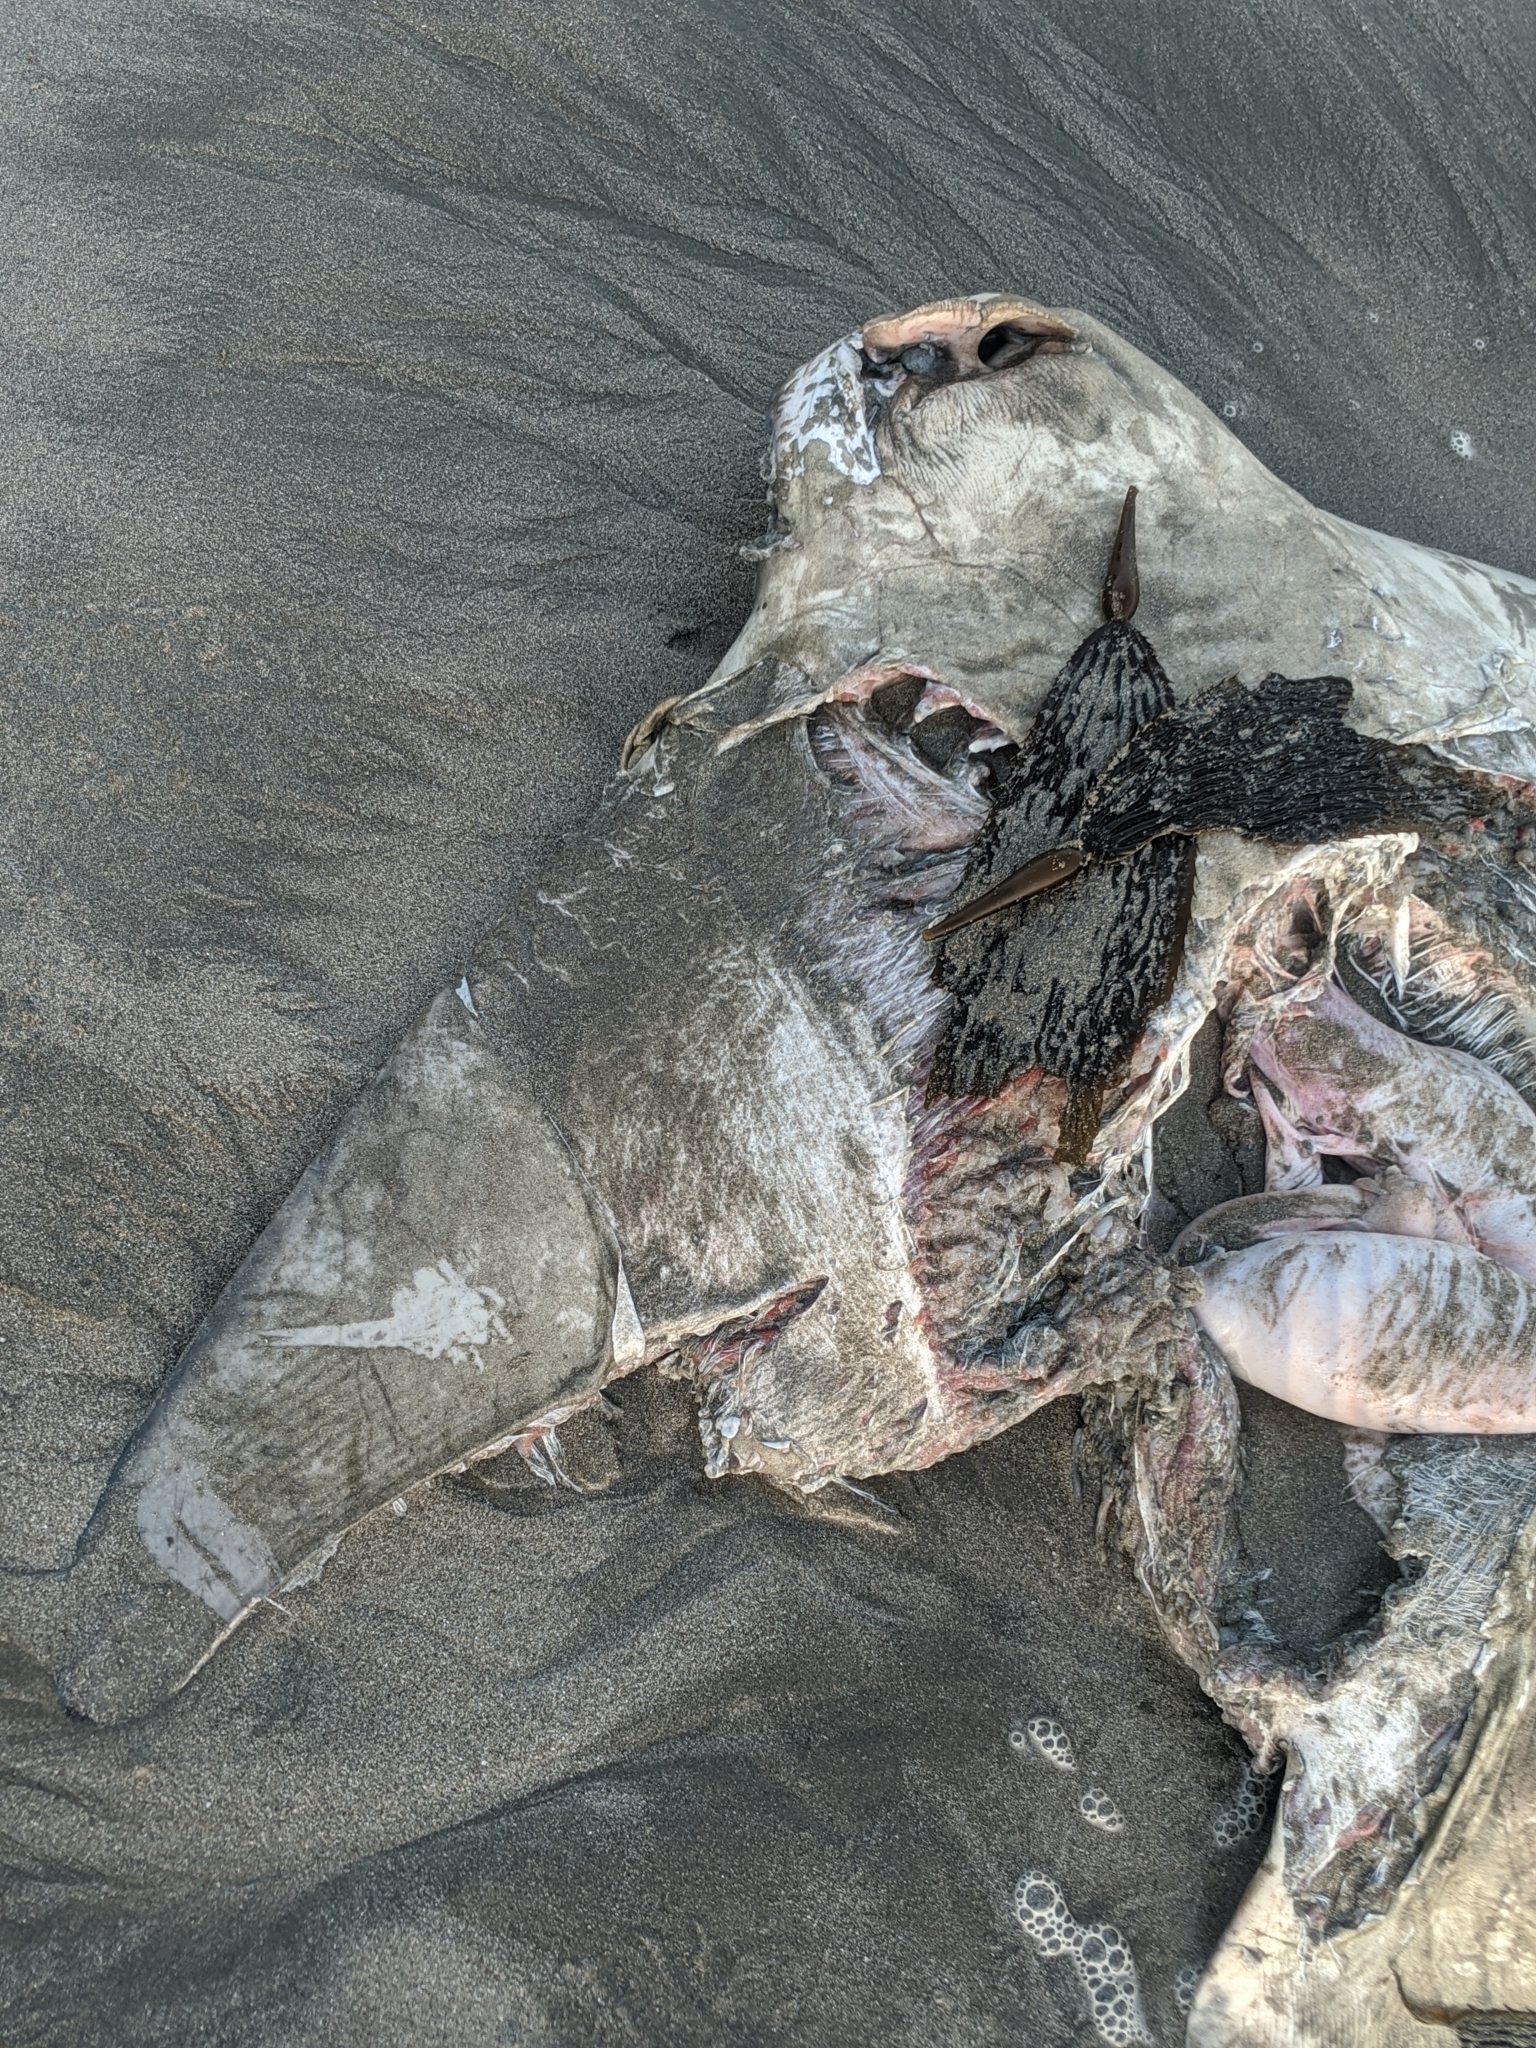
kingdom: Animalia
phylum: Chordata
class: Elasmobranchii
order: Myliobatiformes
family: Myliobatidae
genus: Myliobatis
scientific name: Myliobatis californica
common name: Bat ray
